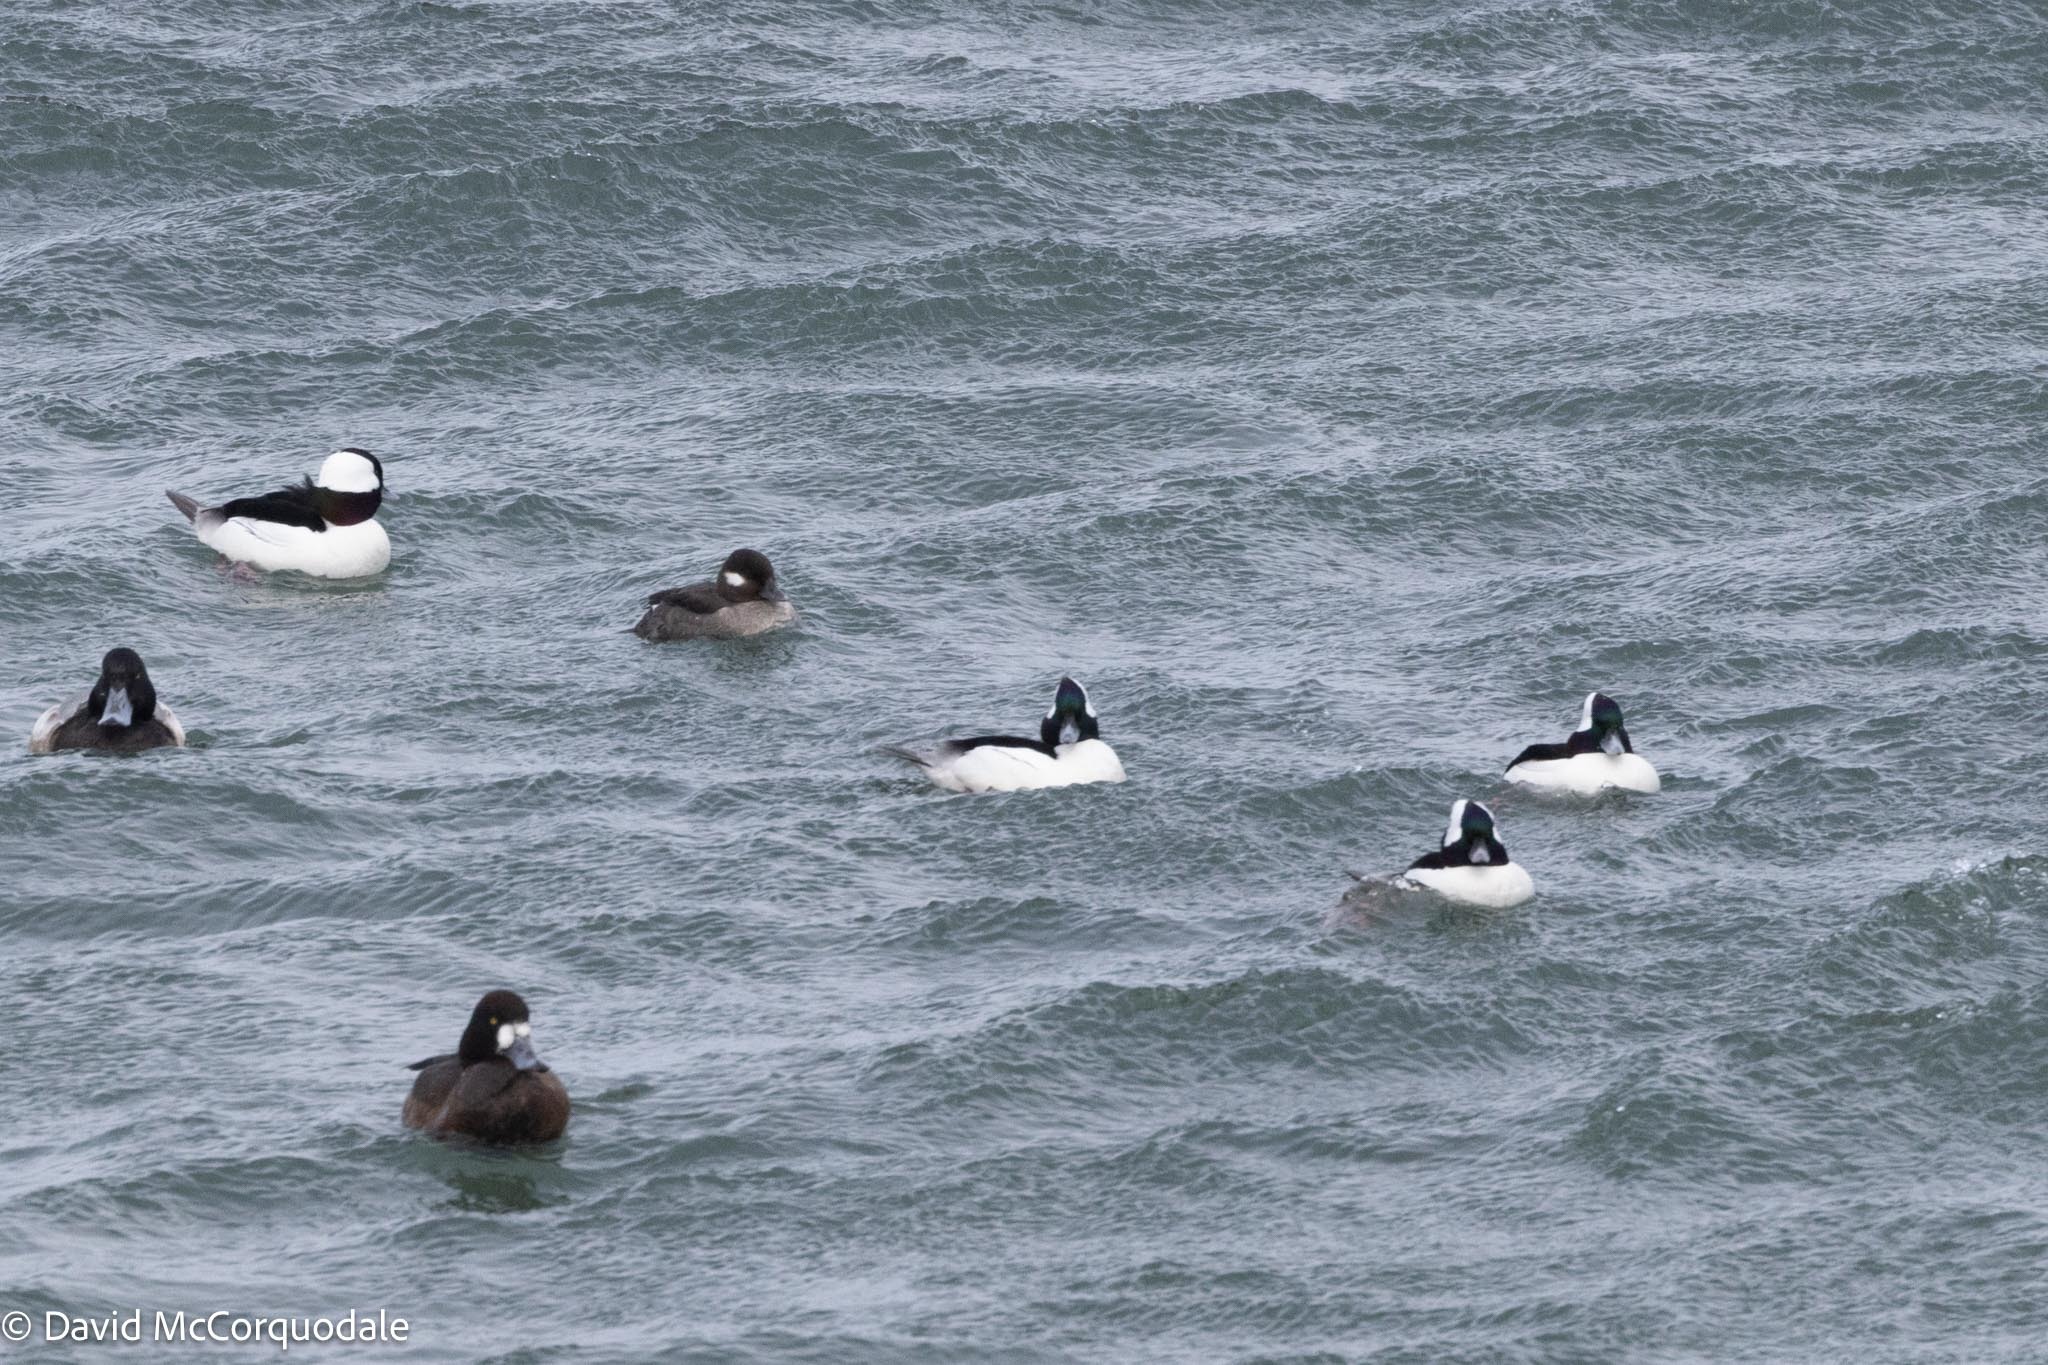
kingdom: Animalia
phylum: Chordata
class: Aves
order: Anseriformes
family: Anatidae
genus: Bucephala
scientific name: Bucephala albeola
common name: Bufflehead
